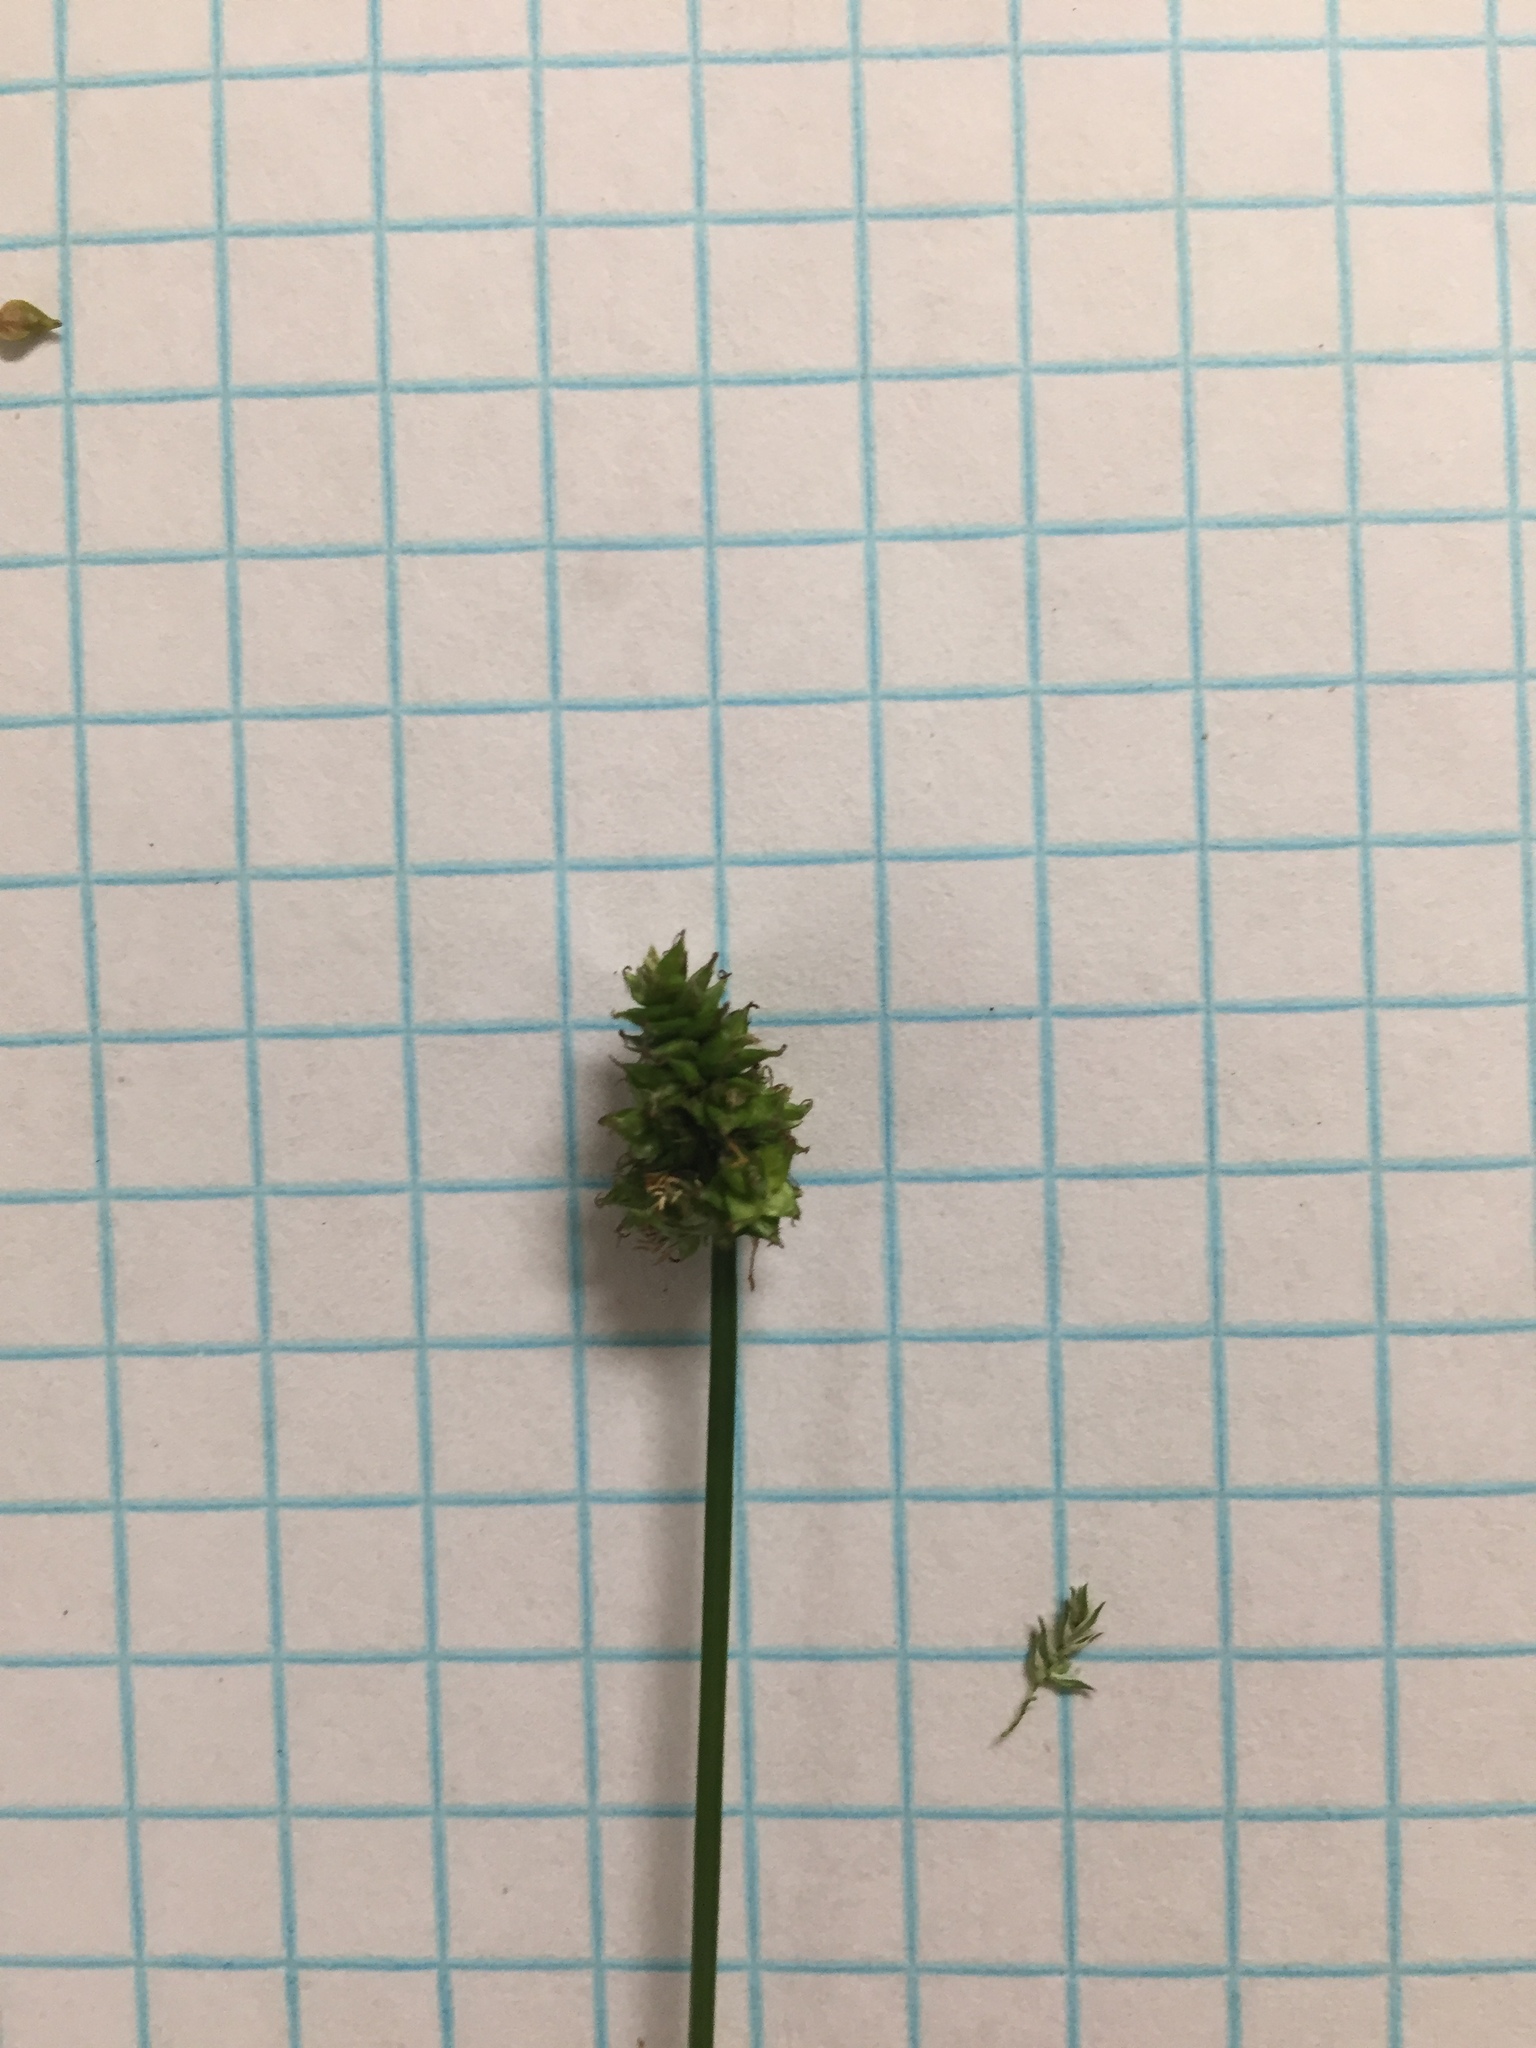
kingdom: Plantae
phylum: Tracheophyta
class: Liliopsida
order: Poales
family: Cyperaceae
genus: Carex
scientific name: Carex leavenworthii
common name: Leavenworth's bracted sedge
